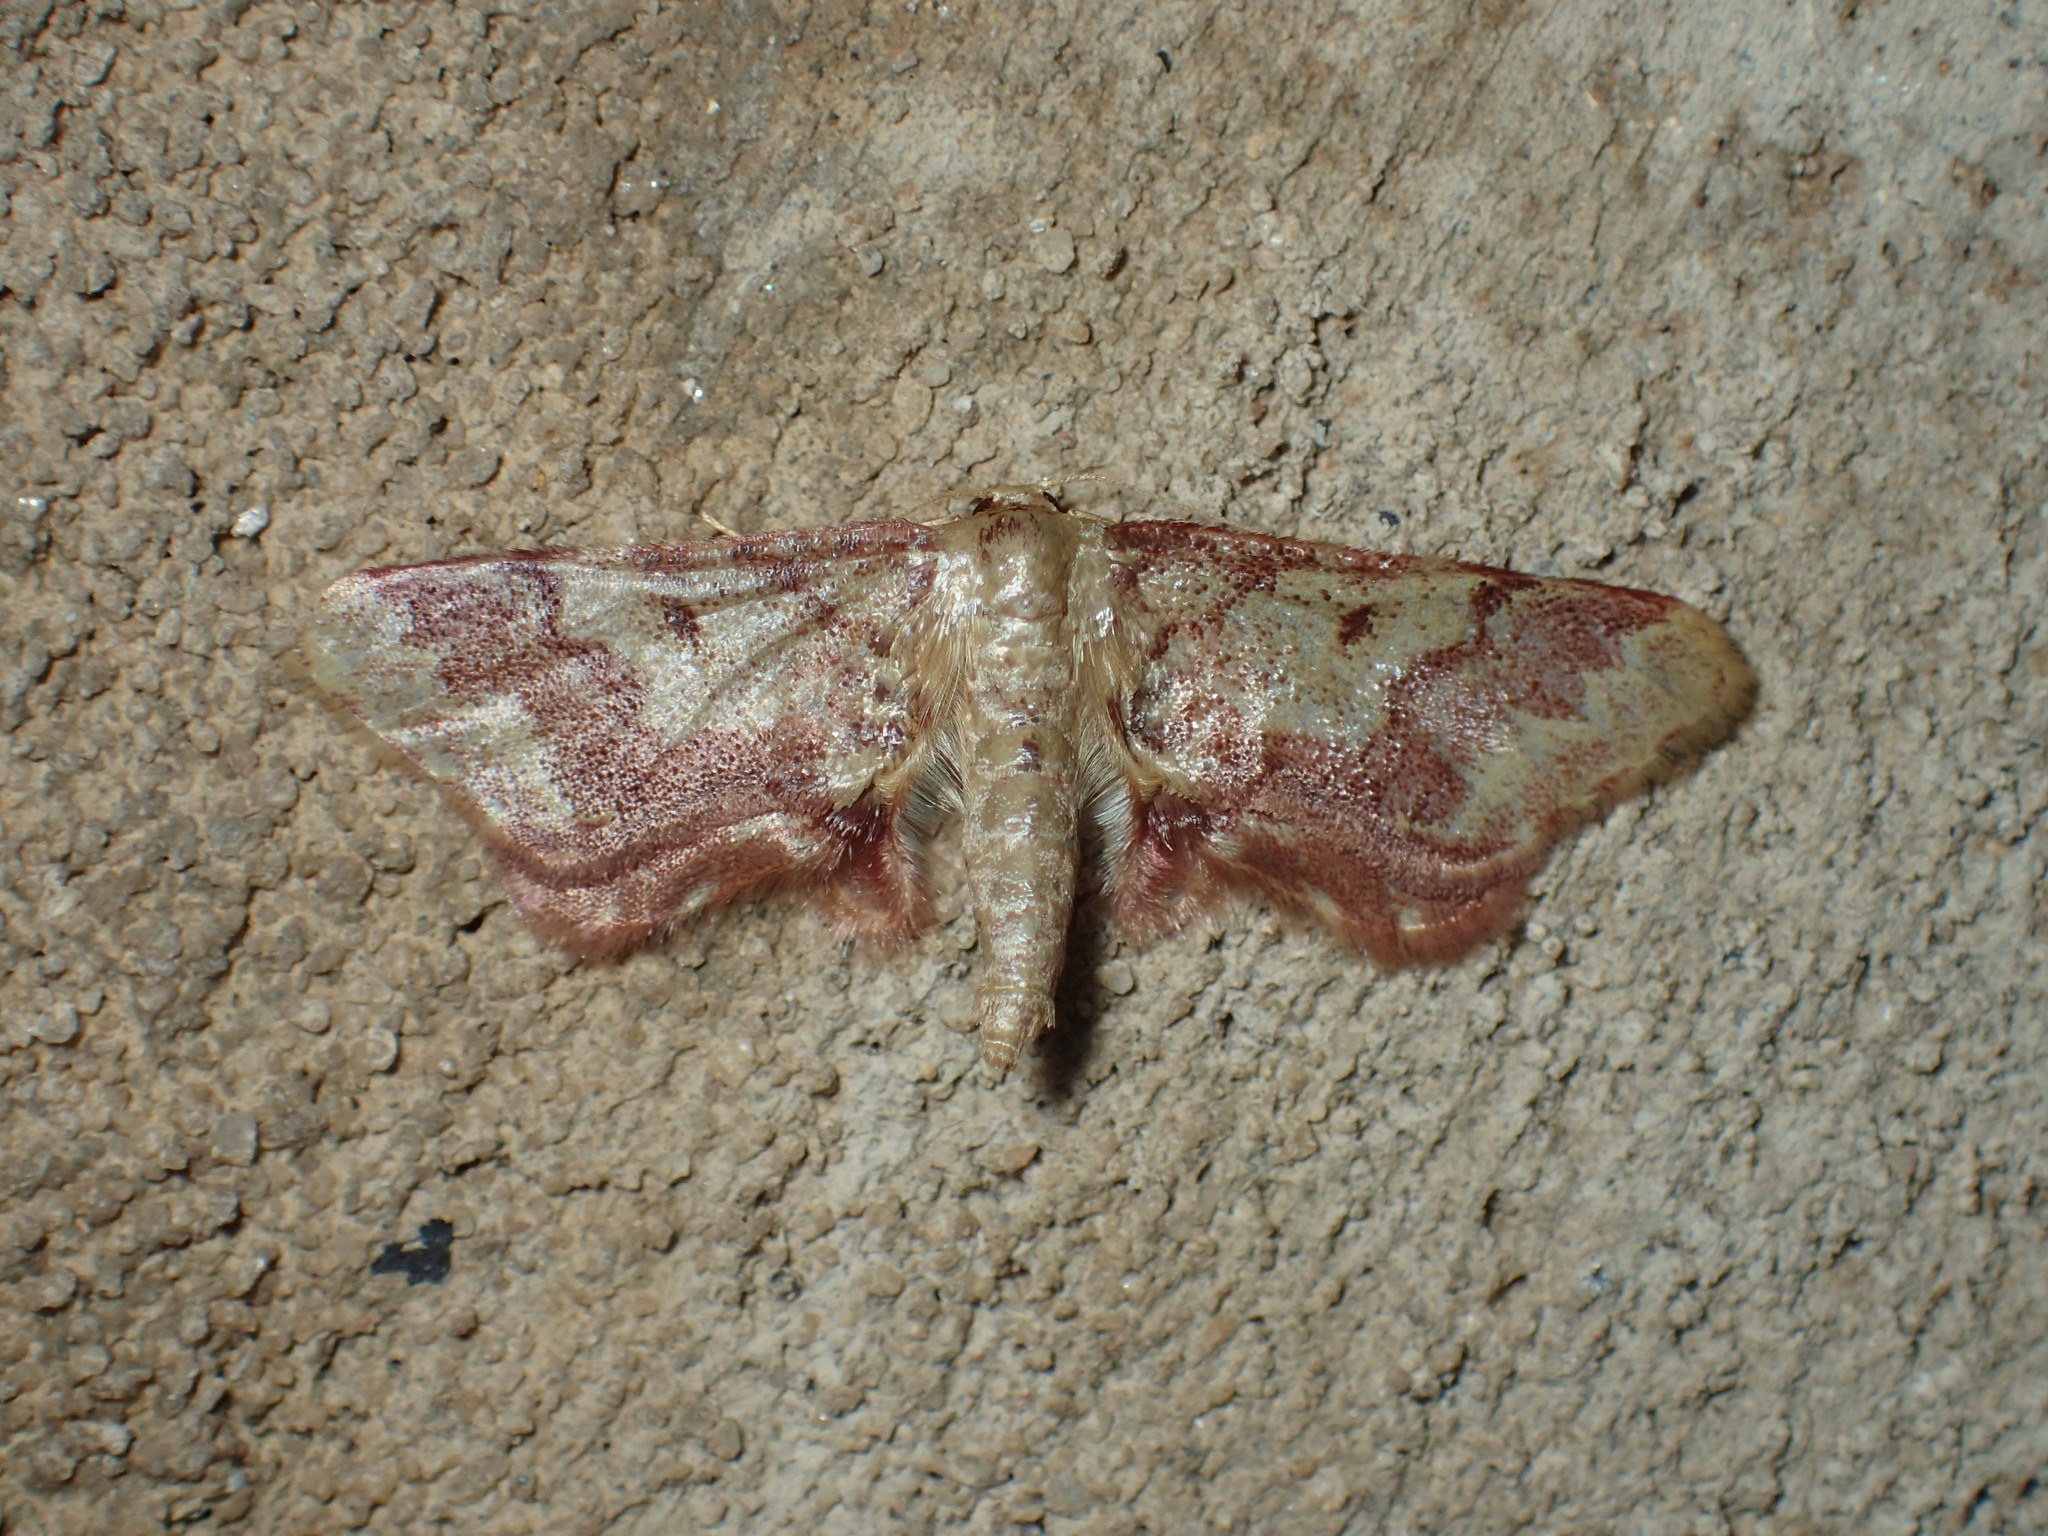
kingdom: Animalia
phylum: Arthropoda
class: Insecta
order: Lepidoptera
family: Geometridae
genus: Idaea
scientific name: Idaea furciferata
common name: Notch-winged wave
